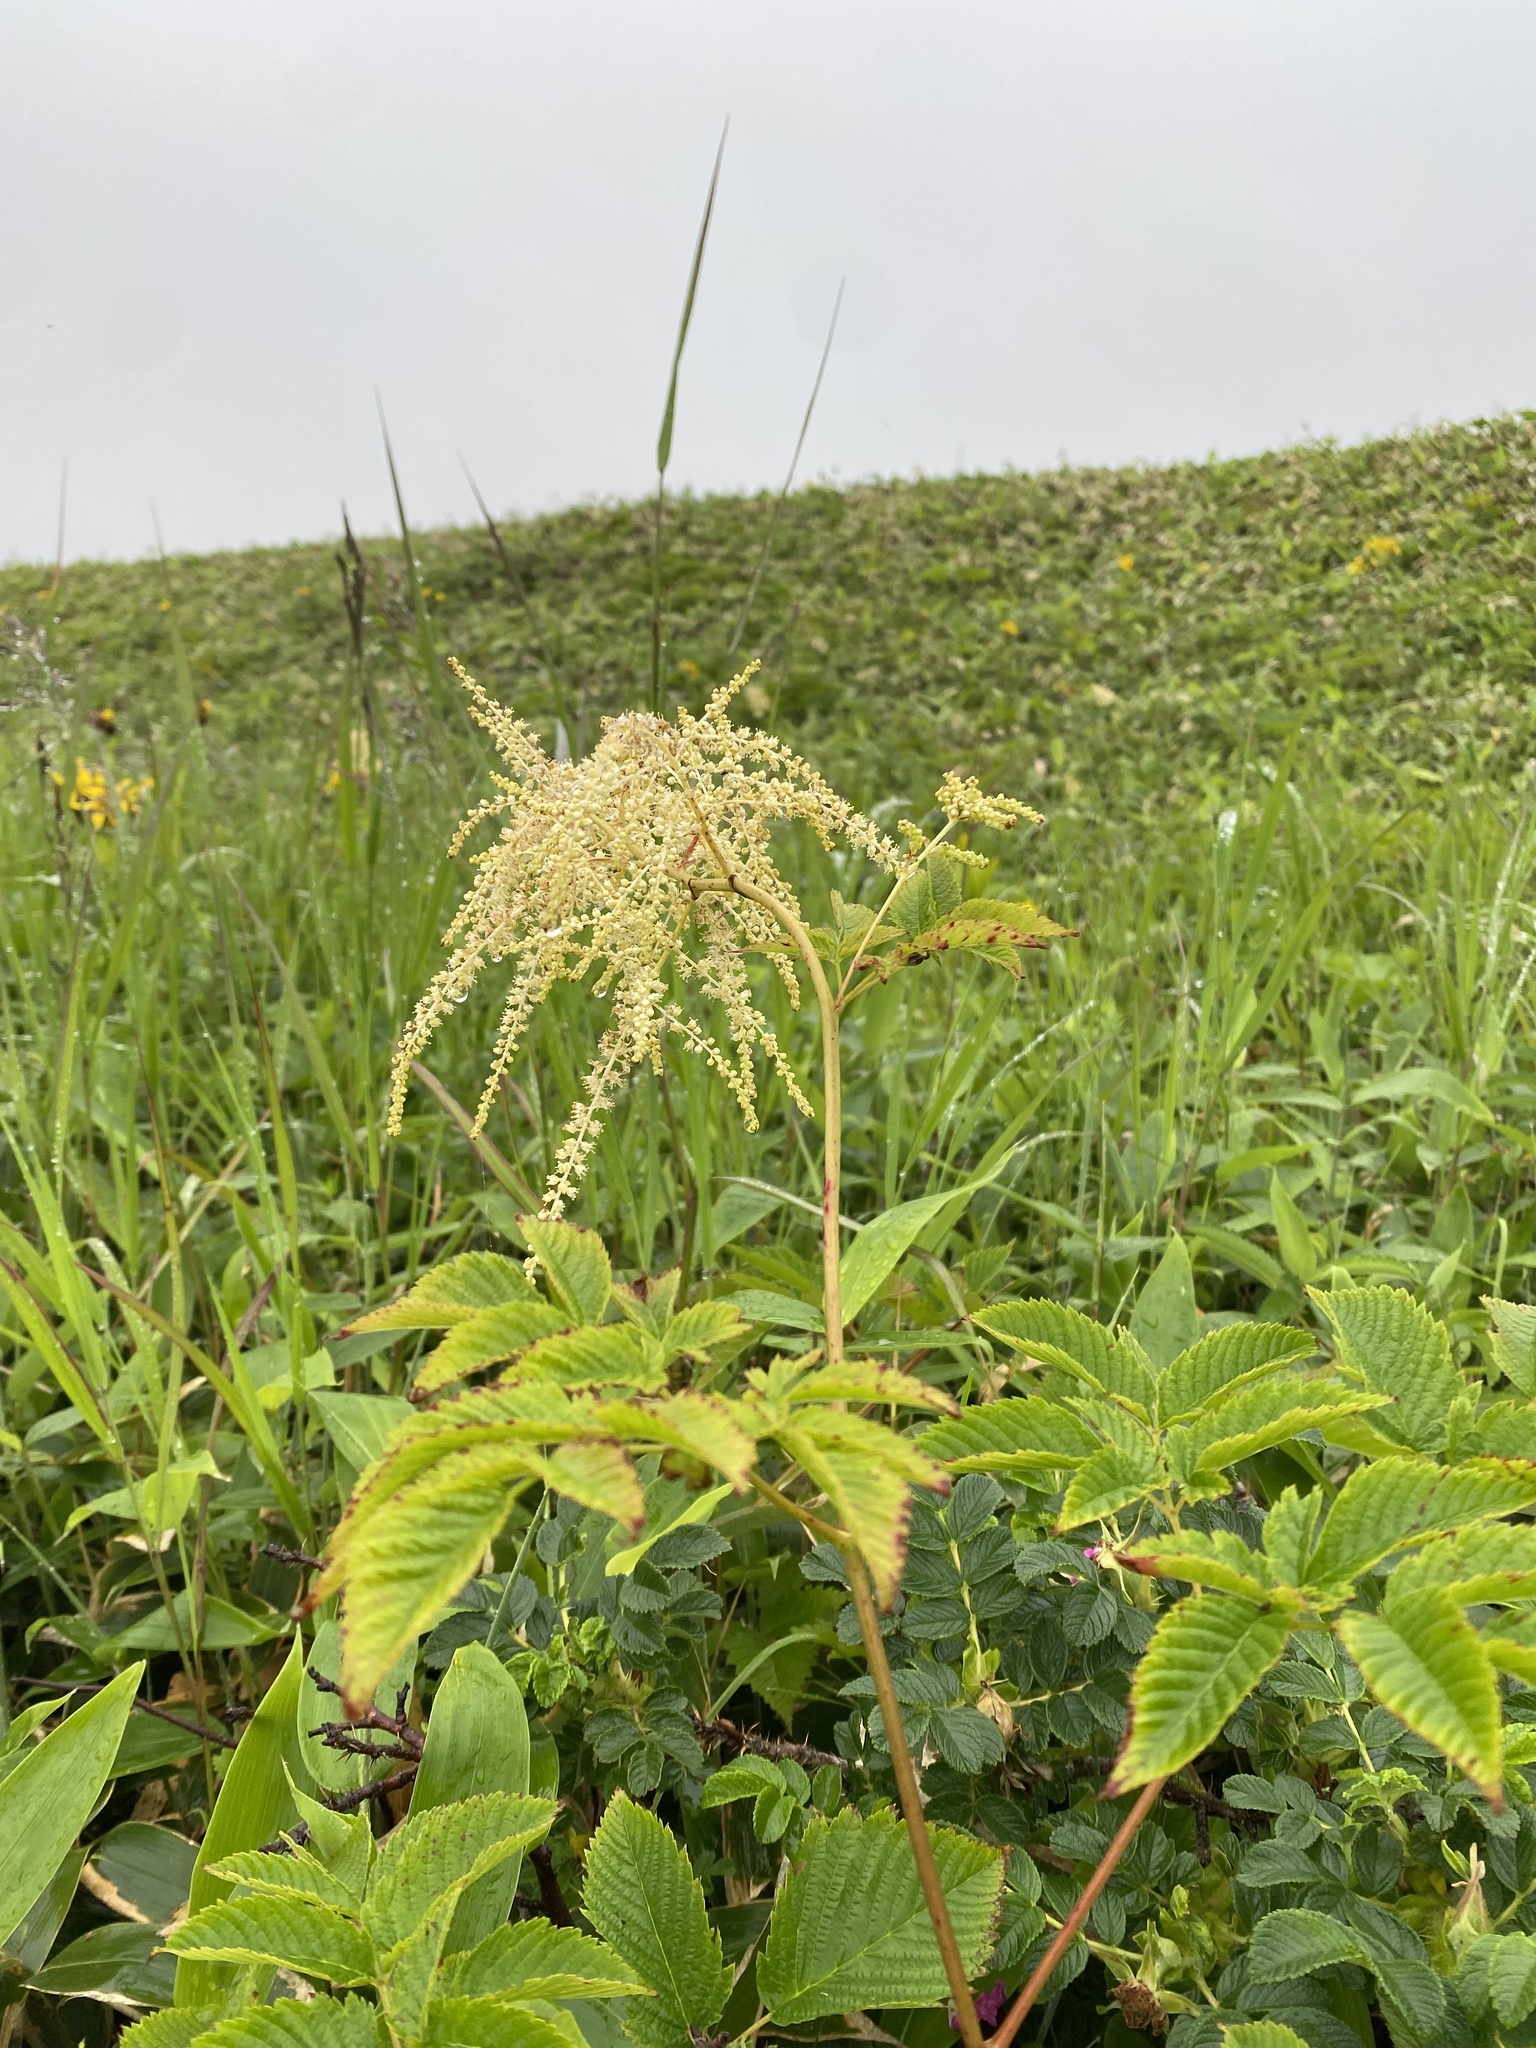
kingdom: Plantae
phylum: Tracheophyta
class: Magnoliopsida
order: Rosales
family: Rosaceae
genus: Aruncus
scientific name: Aruncus dioicus
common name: Buck's-beard
